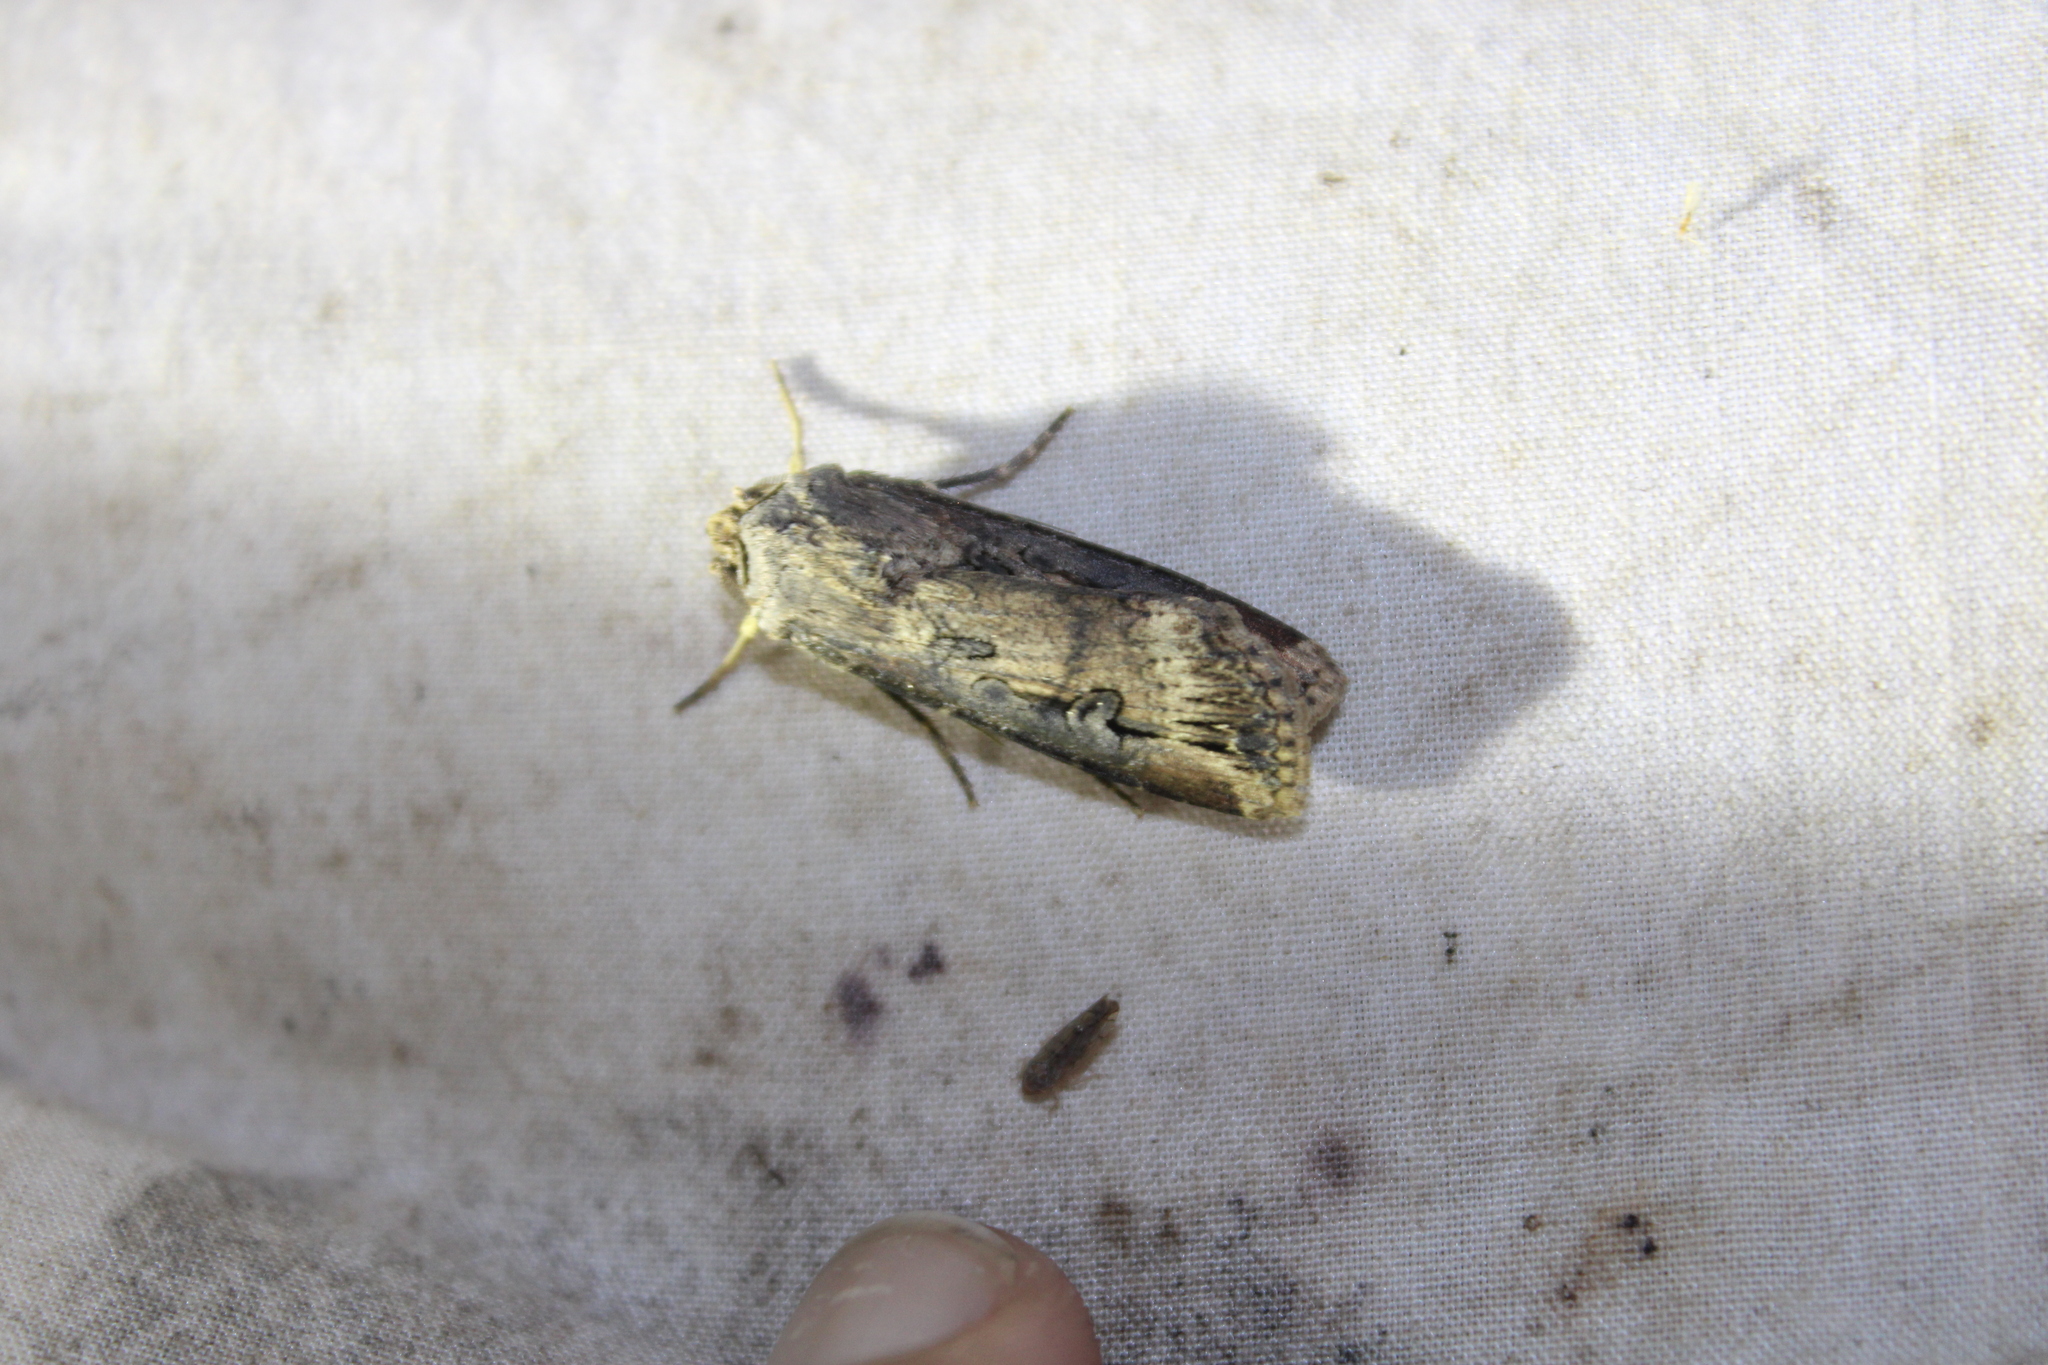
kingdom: Animalia
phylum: Arthropoda
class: Insecta
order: Lepidoptera
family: Noctuidae
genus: Agrotis
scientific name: Agrotis ipsilon
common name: Dark sword-grass
